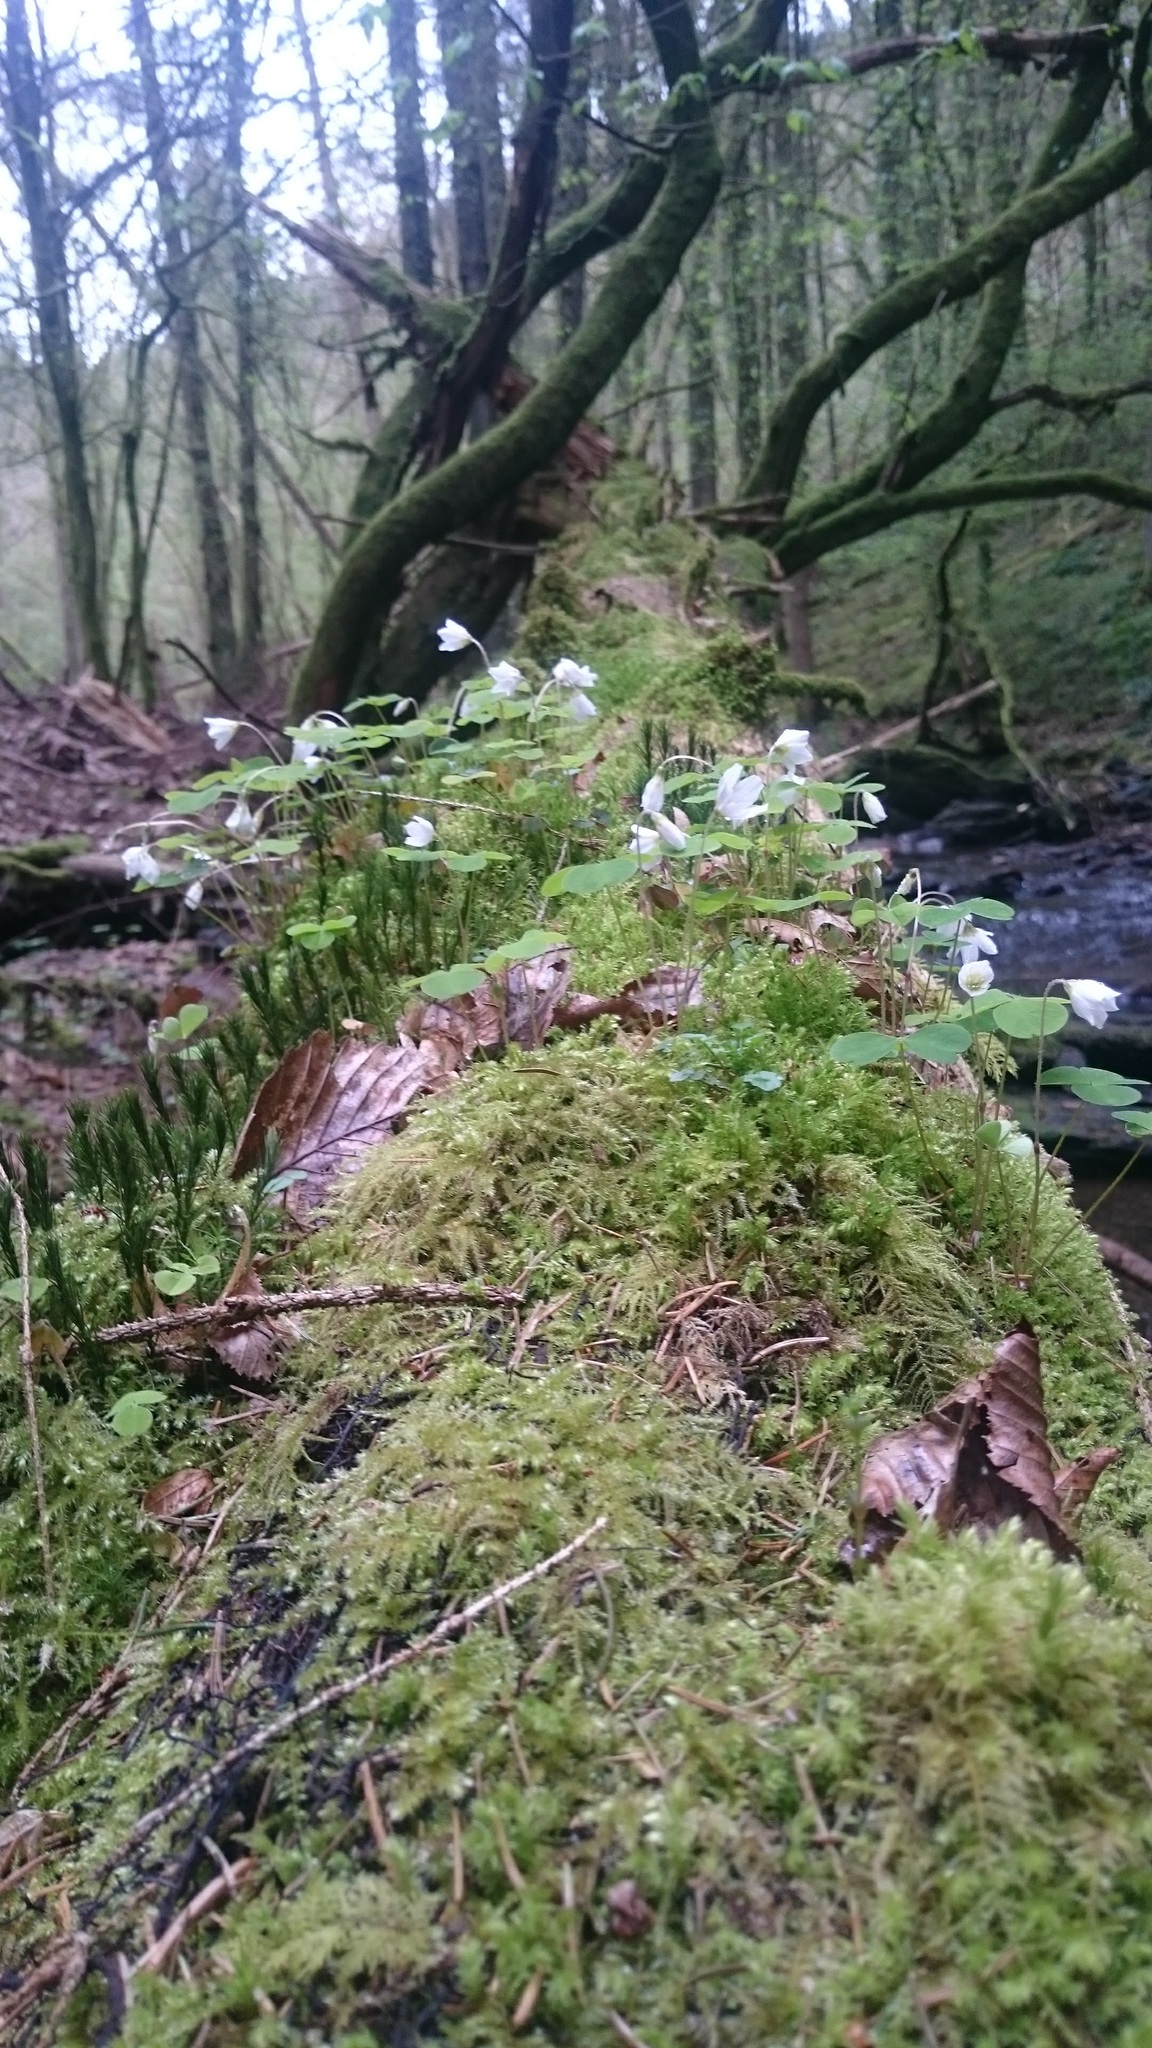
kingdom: Plantae
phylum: Tracheophyta
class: Magnoliopsida
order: Oxalidales
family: Oxalidaceae
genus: Oxalis
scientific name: Oxalis acetosella
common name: Wood-sorrel
